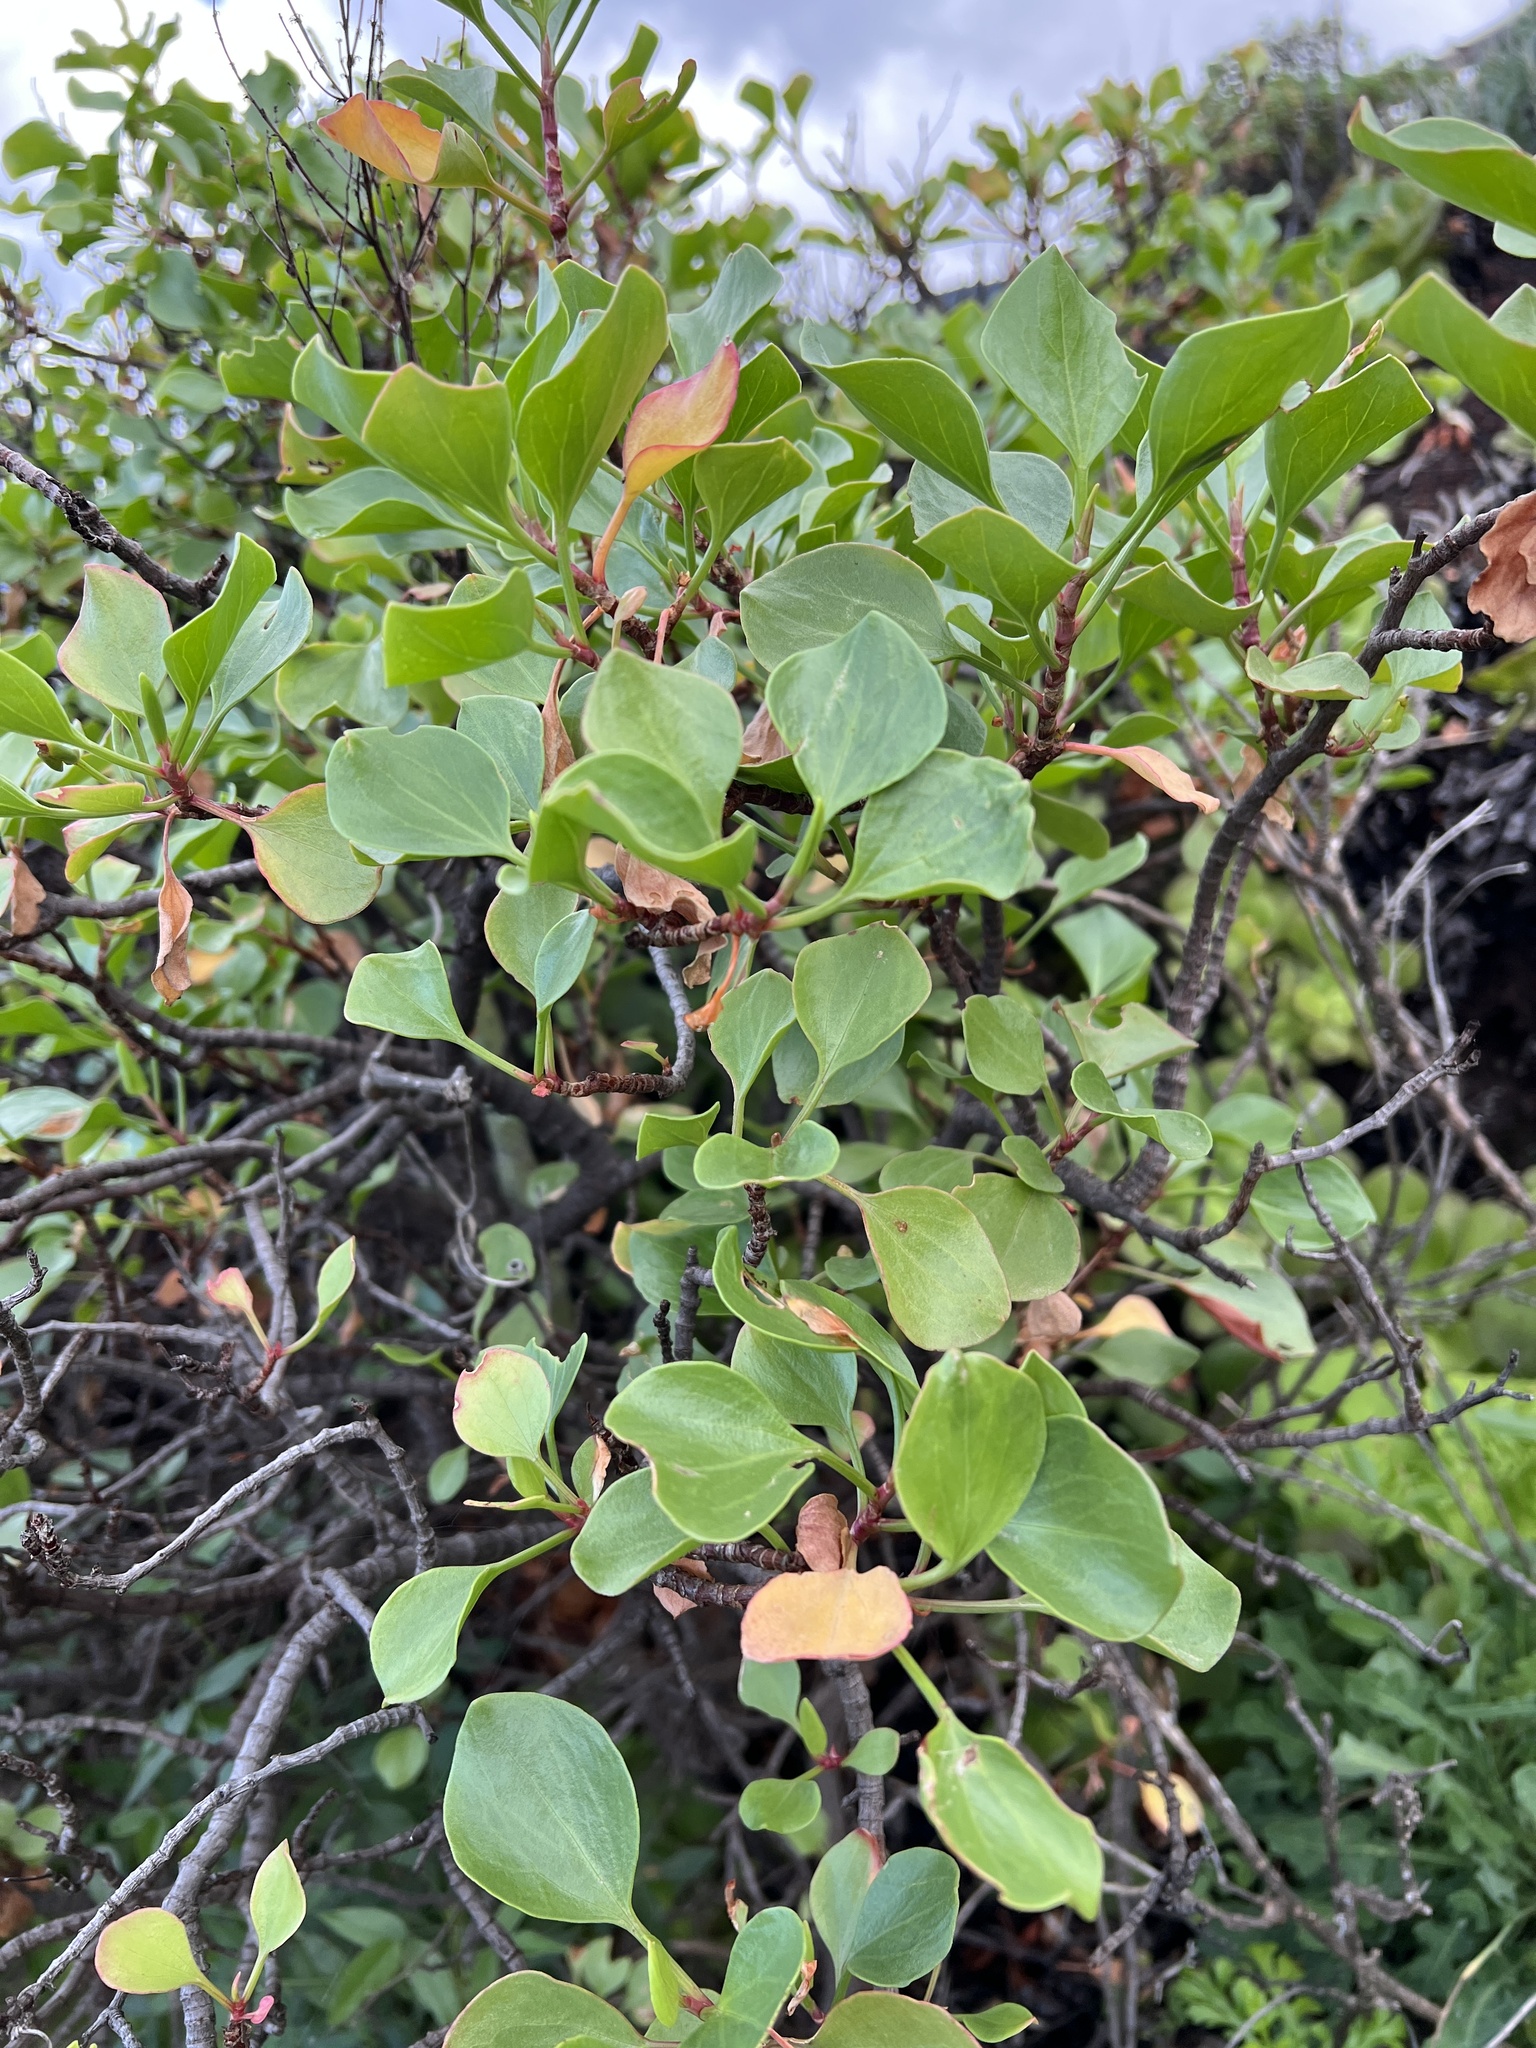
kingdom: Plantae
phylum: Tracheophyta
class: Magnoliopsida
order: Caryophyllales
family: Polygonaceae
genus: Rumex
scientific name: Rumex lunaria
